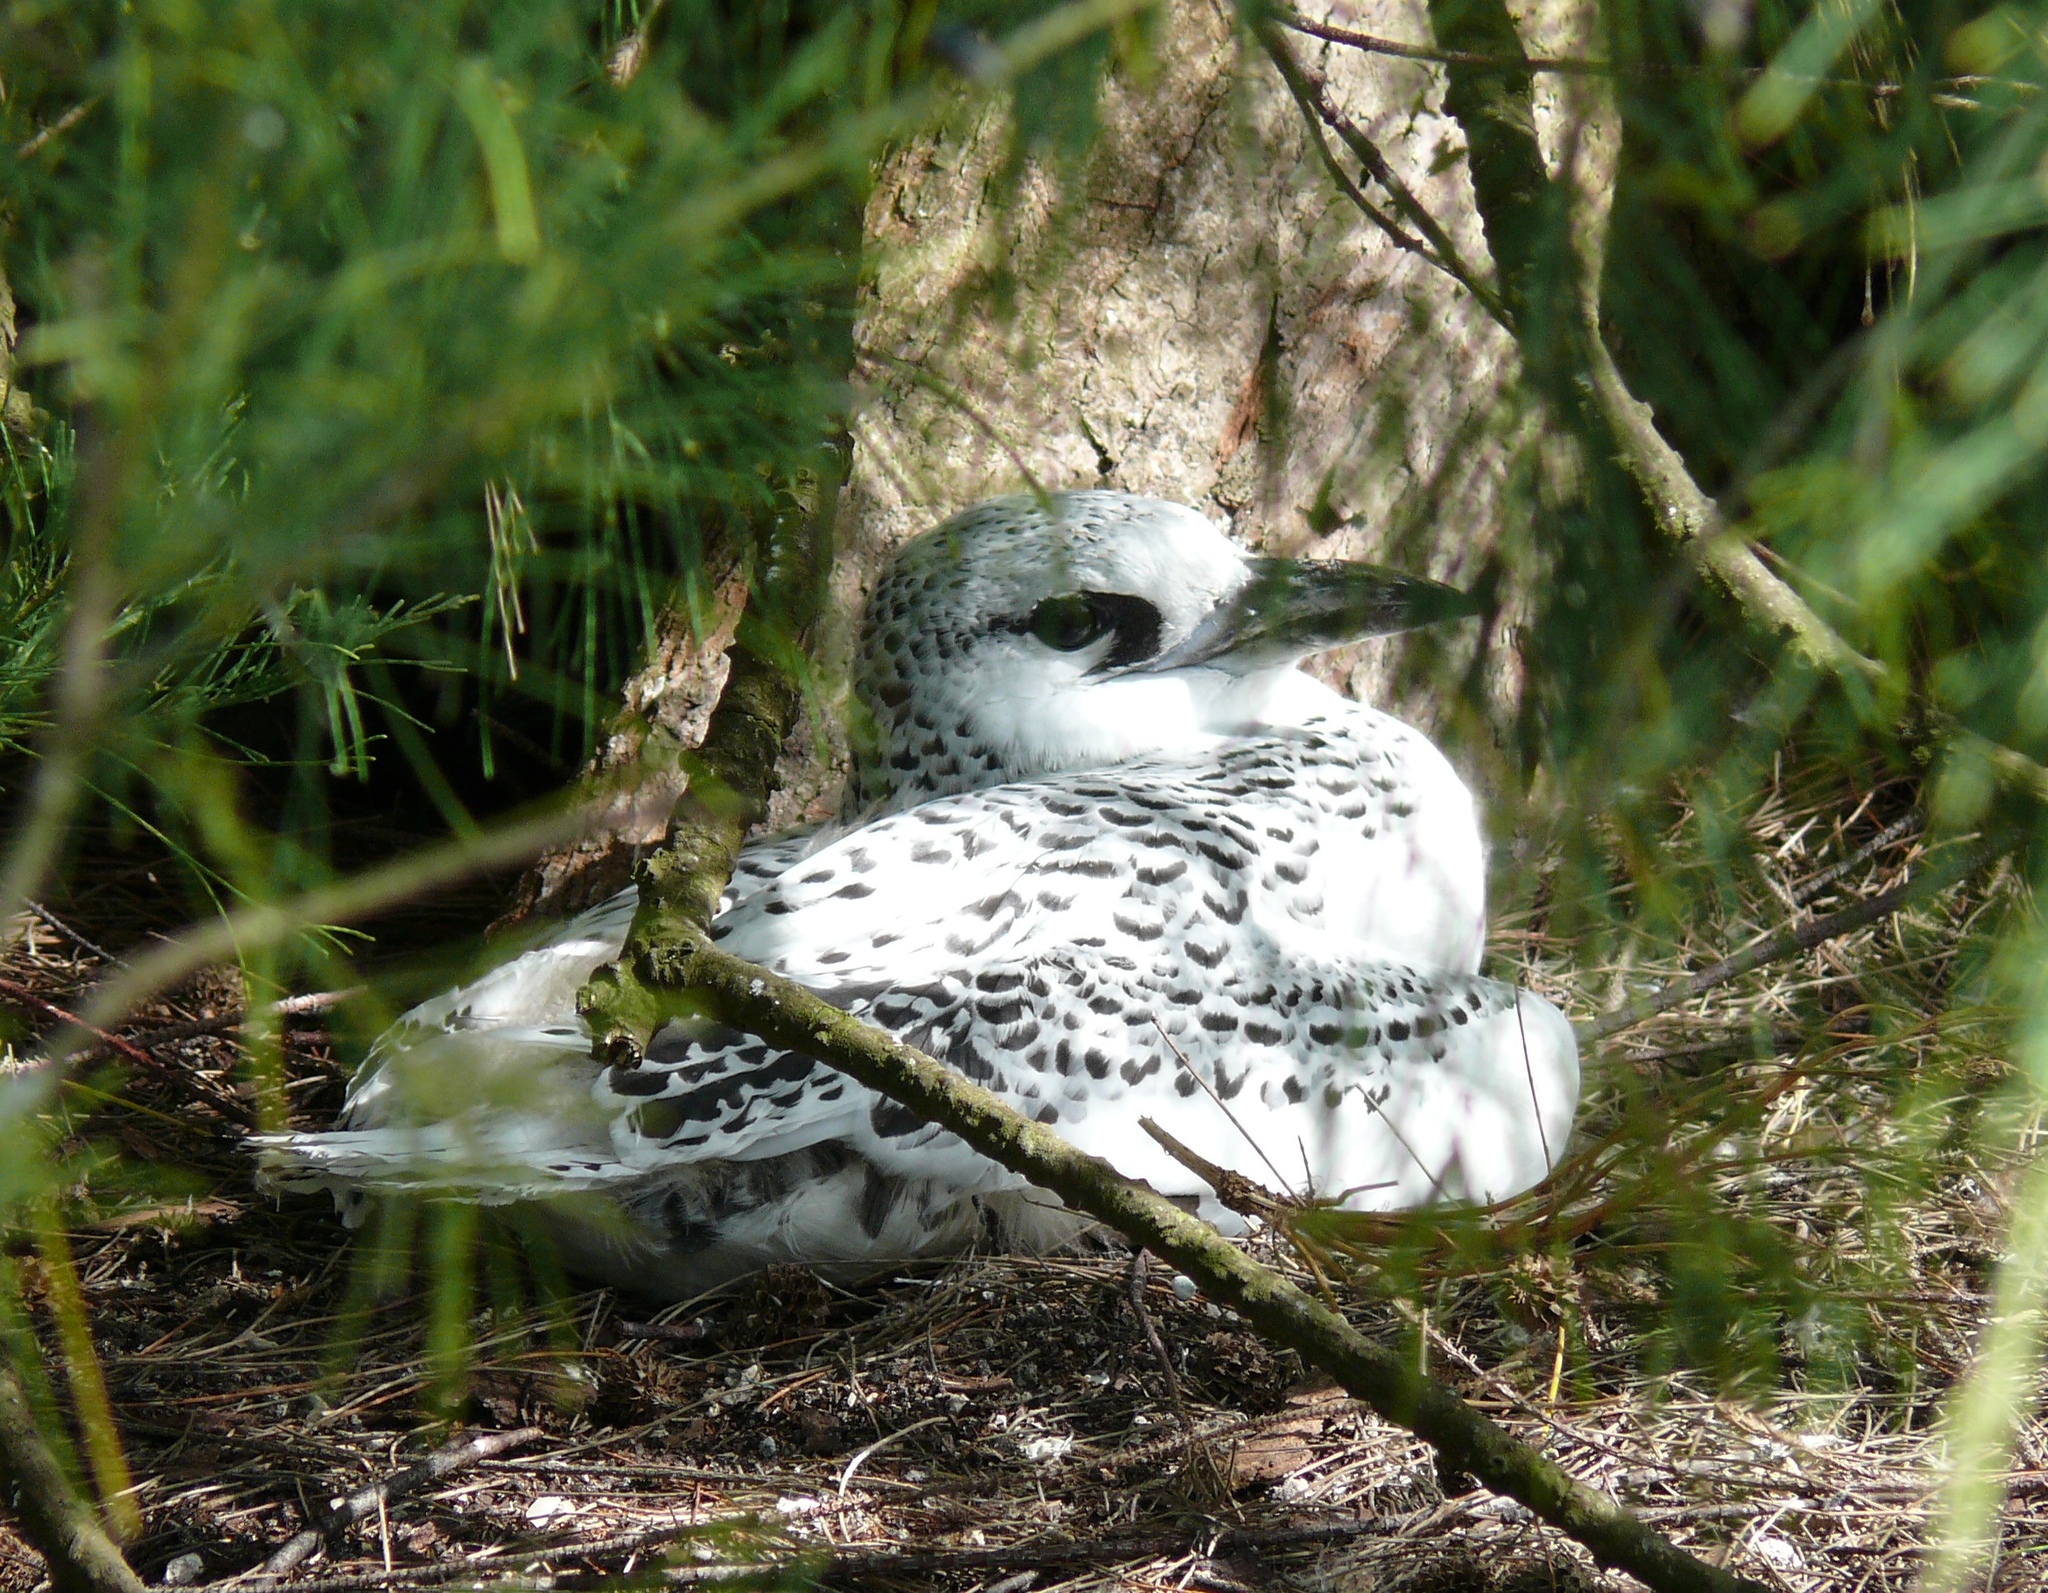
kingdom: Animalia
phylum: Chordata
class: Aves
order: Phaethontiformes
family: Phaethontidae
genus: Phaethon
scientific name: Phaethon rubricauda
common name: Red-tailed tropicbird
